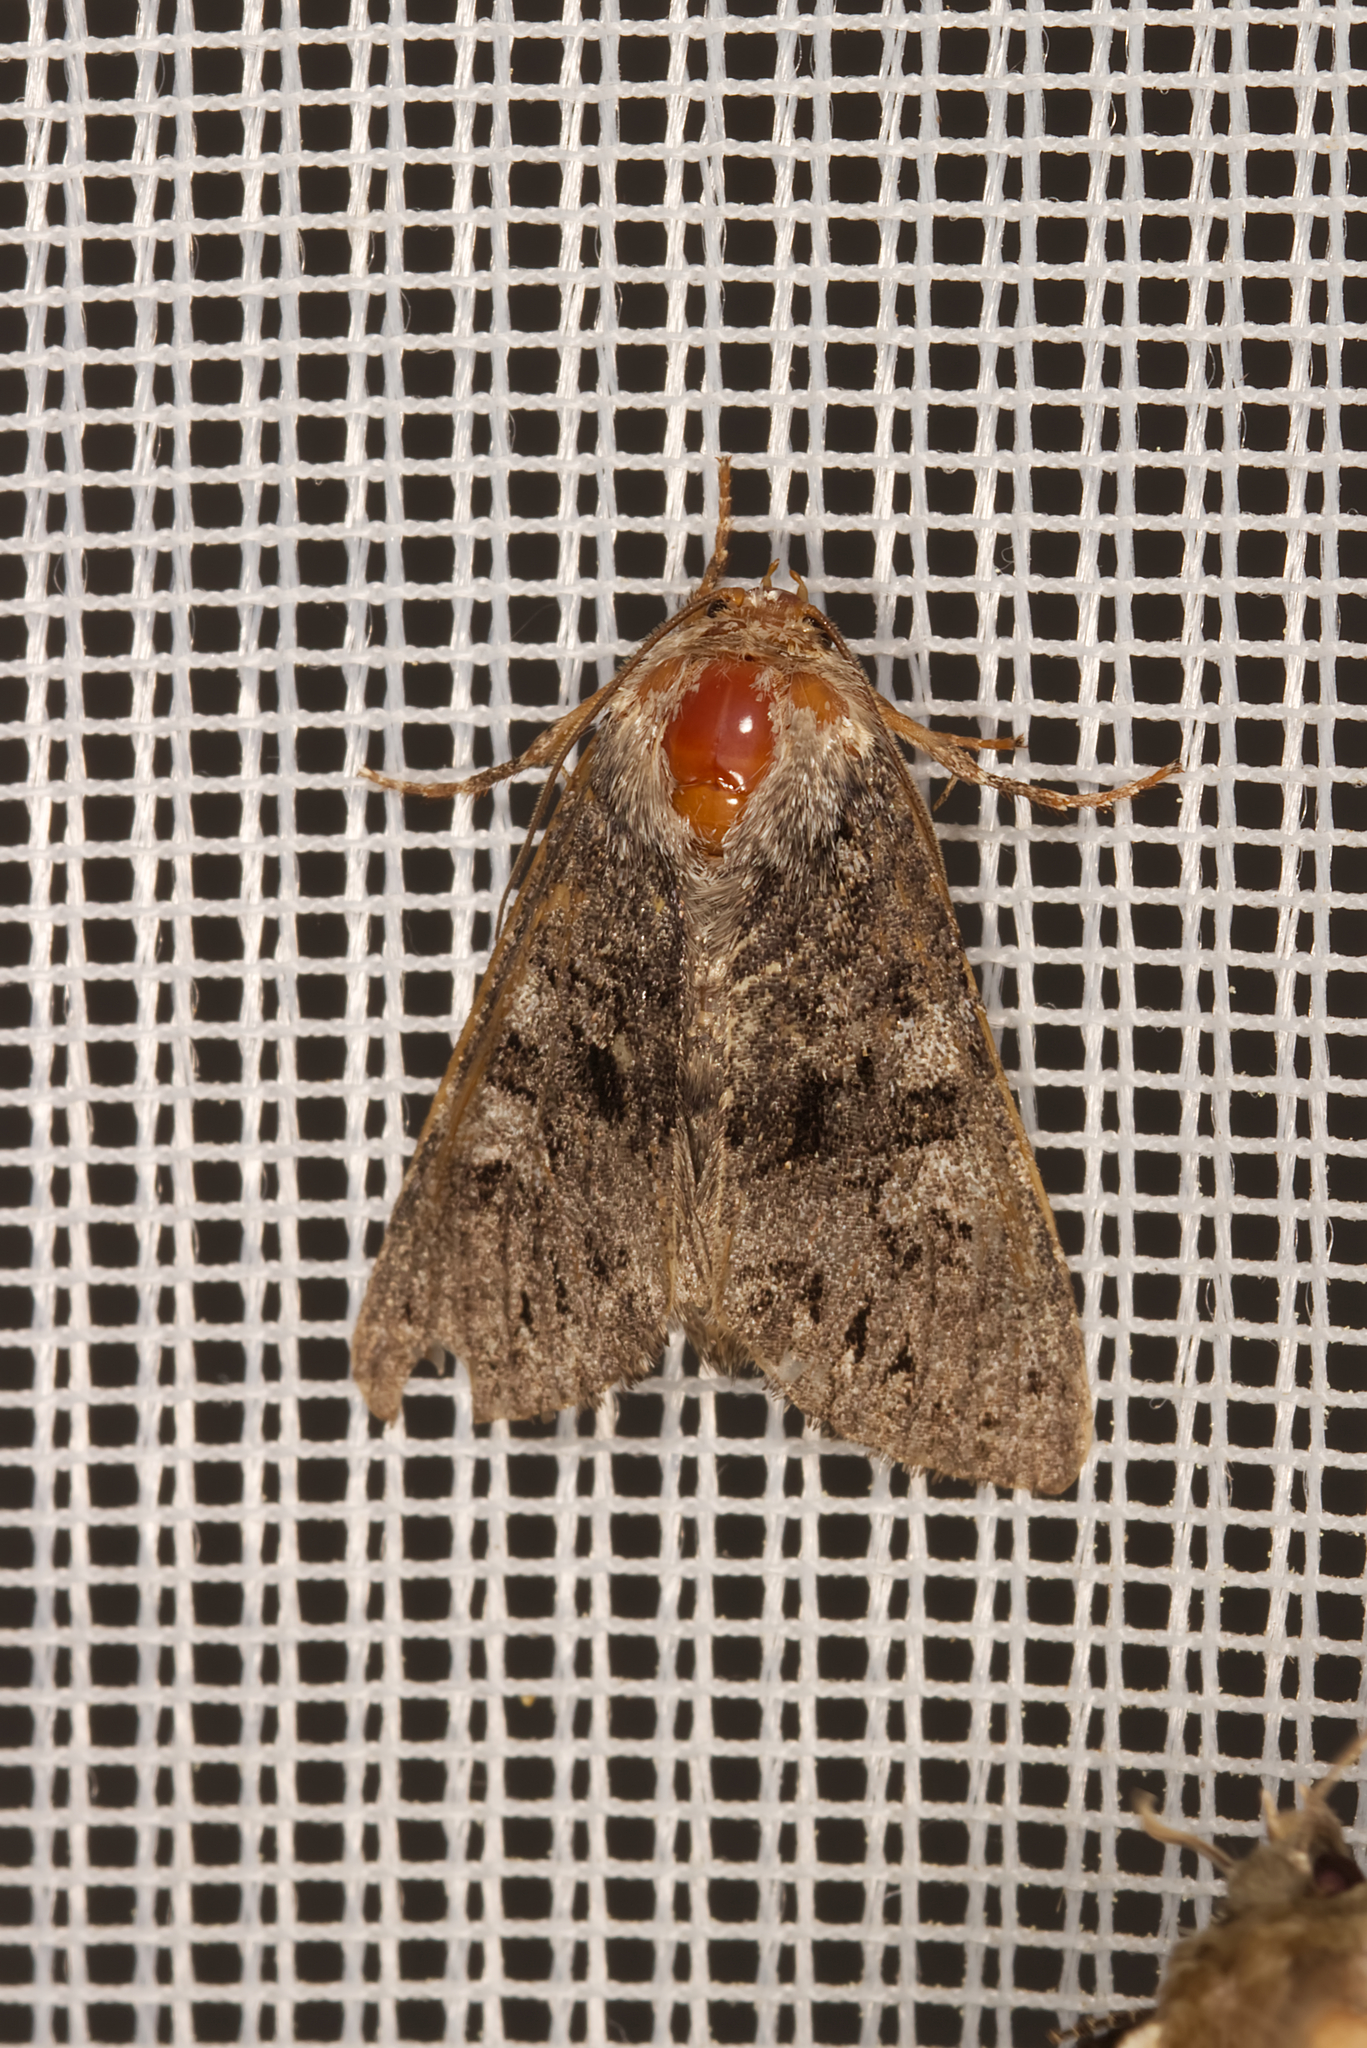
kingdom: Animalia
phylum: Arthropoda
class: Insecta
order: Lepidoptera
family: Noctuidae
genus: Papestra
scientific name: Papestra biren
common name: Glaucous shears
